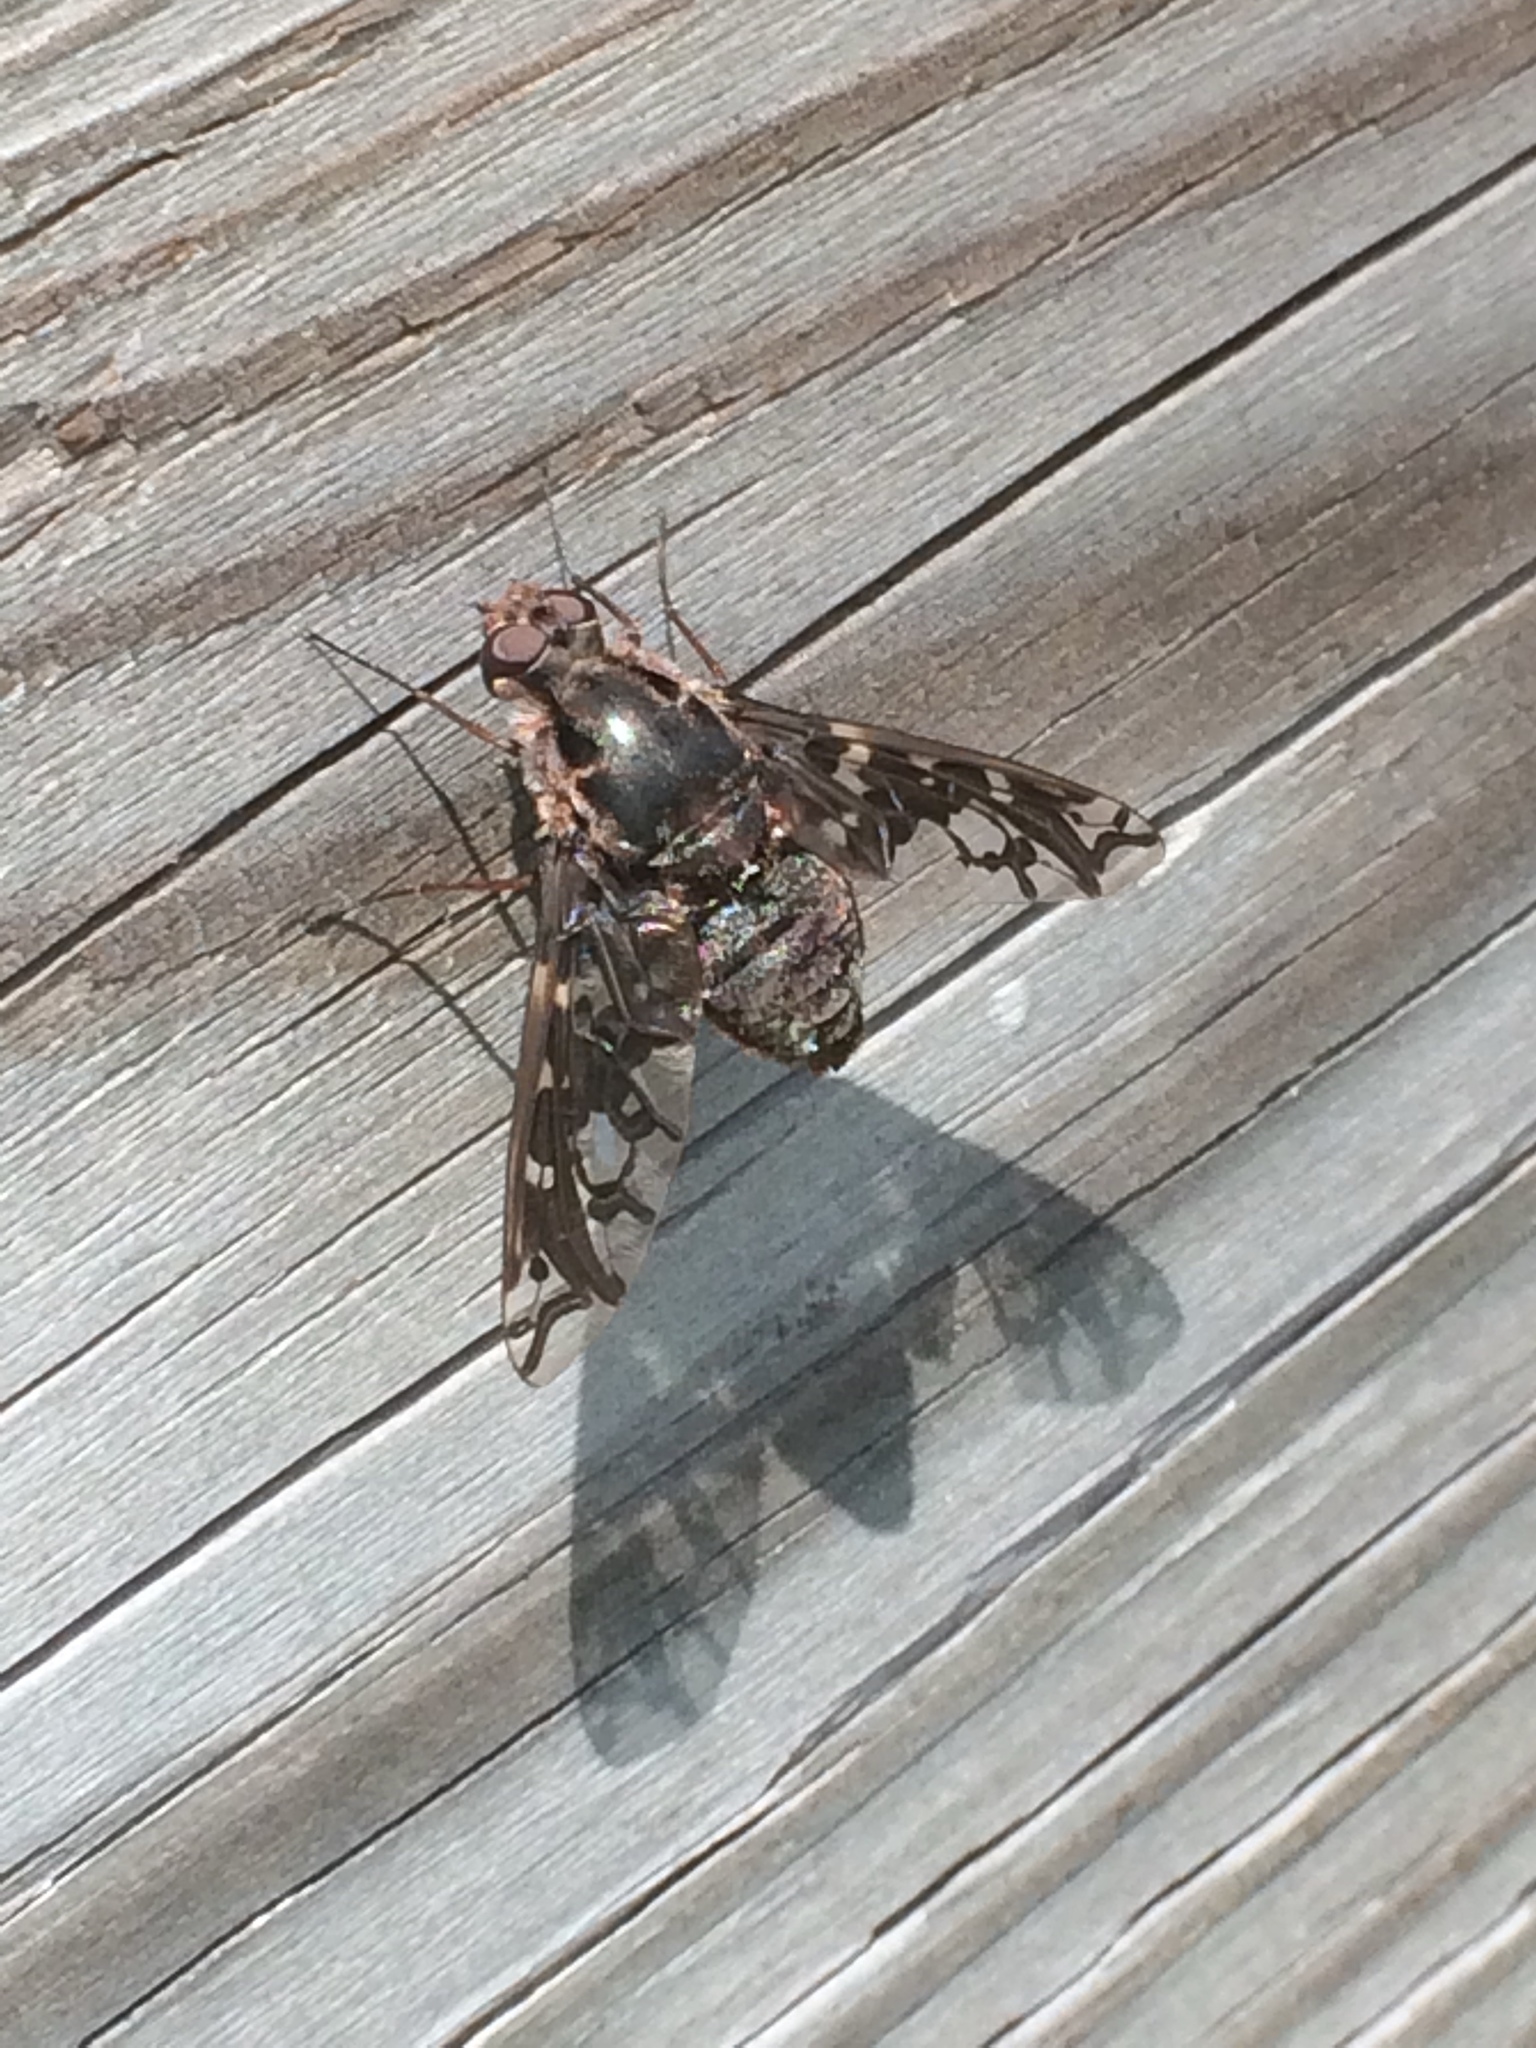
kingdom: Animalia
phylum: Arthropoda
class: Insecta
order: Diptera
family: Bombyliidae
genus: Xenox
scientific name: Xenox tigrinus
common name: Tiger bee fly
